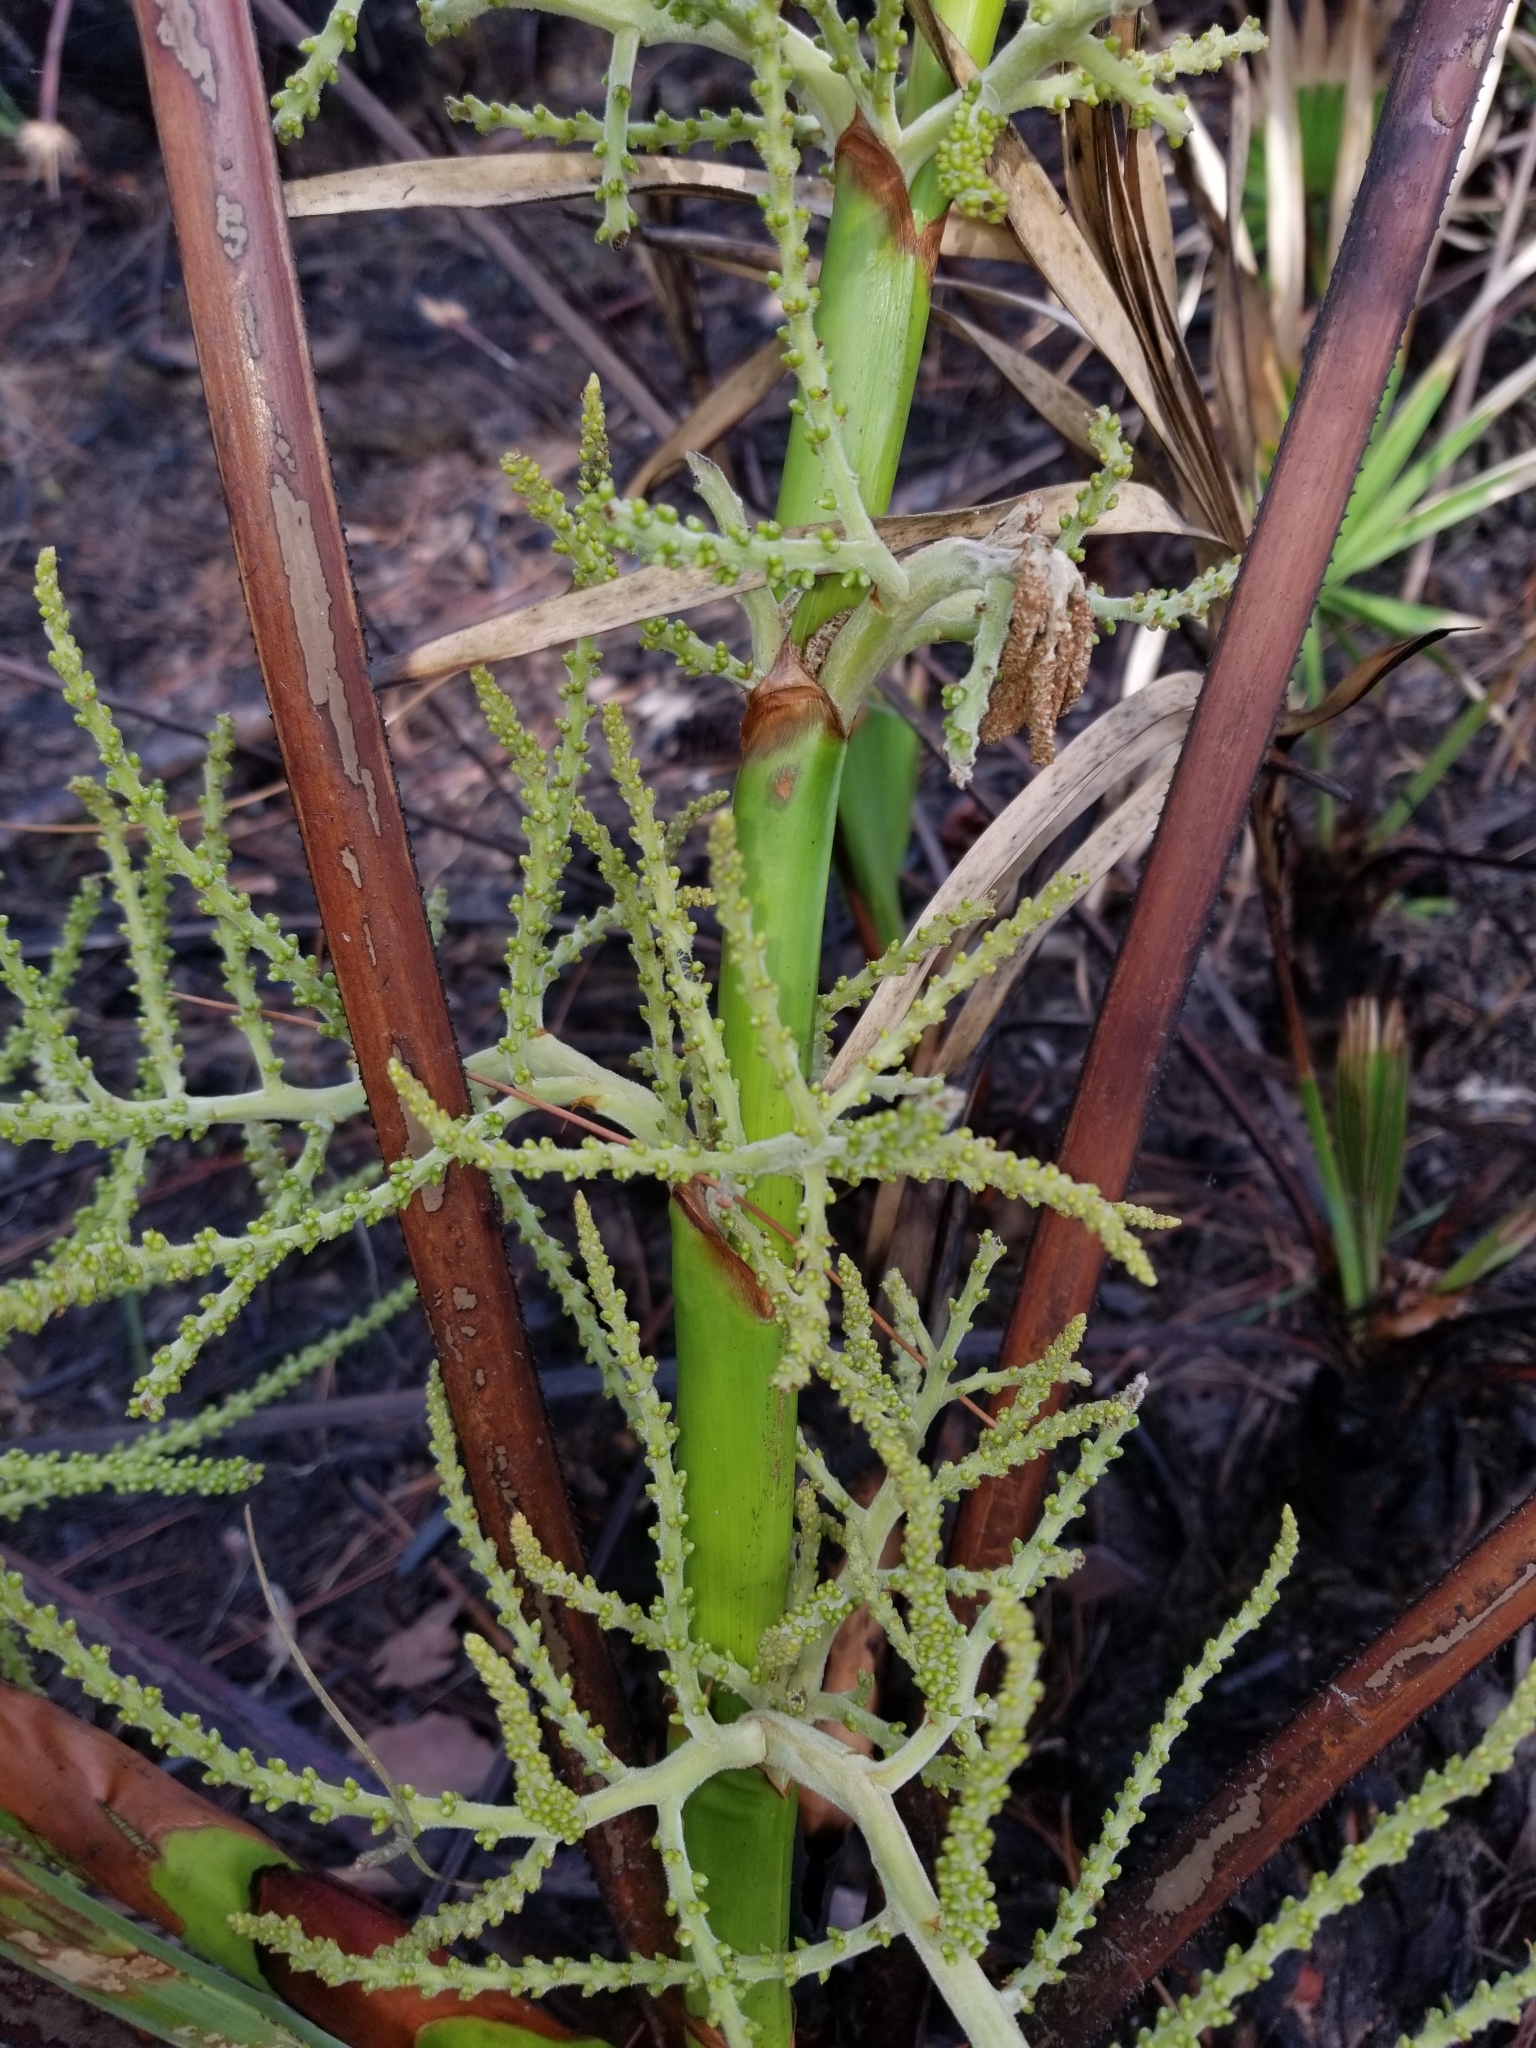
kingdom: Plantae
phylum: Tracheophyta
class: Liliopsida
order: Arecales
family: Arecaceae
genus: Serenoa
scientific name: Serenoa repens
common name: Saw-palmetto
